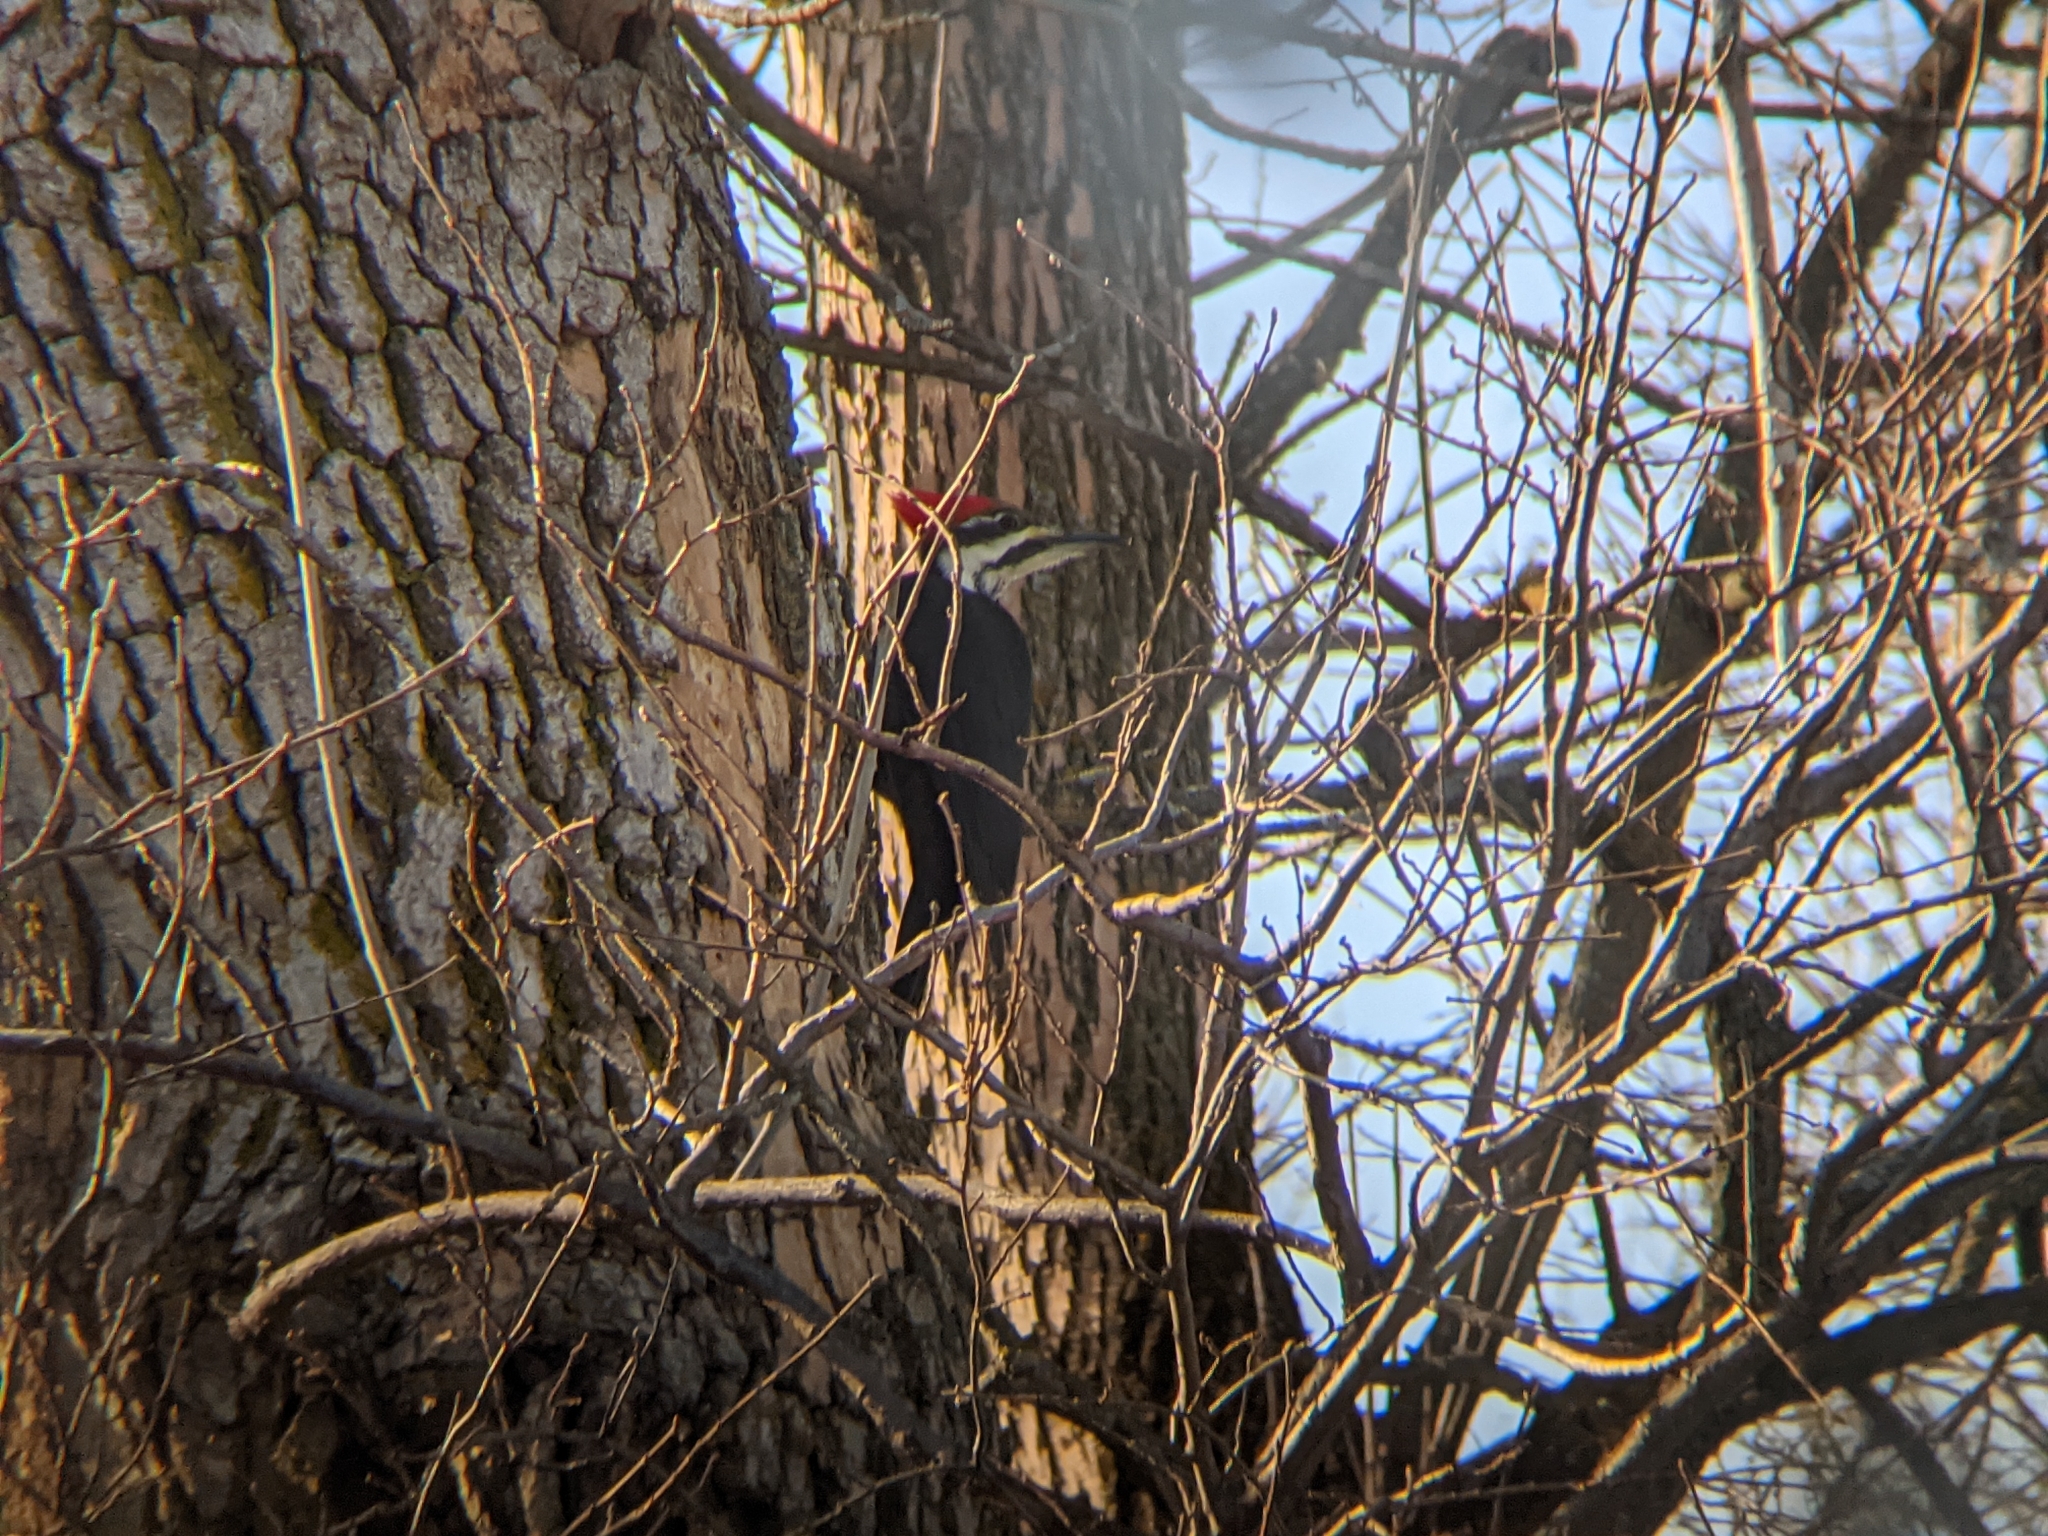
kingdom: Animalia
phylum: Chordata
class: Aves
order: Piciformes
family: Picidae
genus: Dryocopus
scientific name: Dryocopus pileatus
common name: Pileated woodpecker
